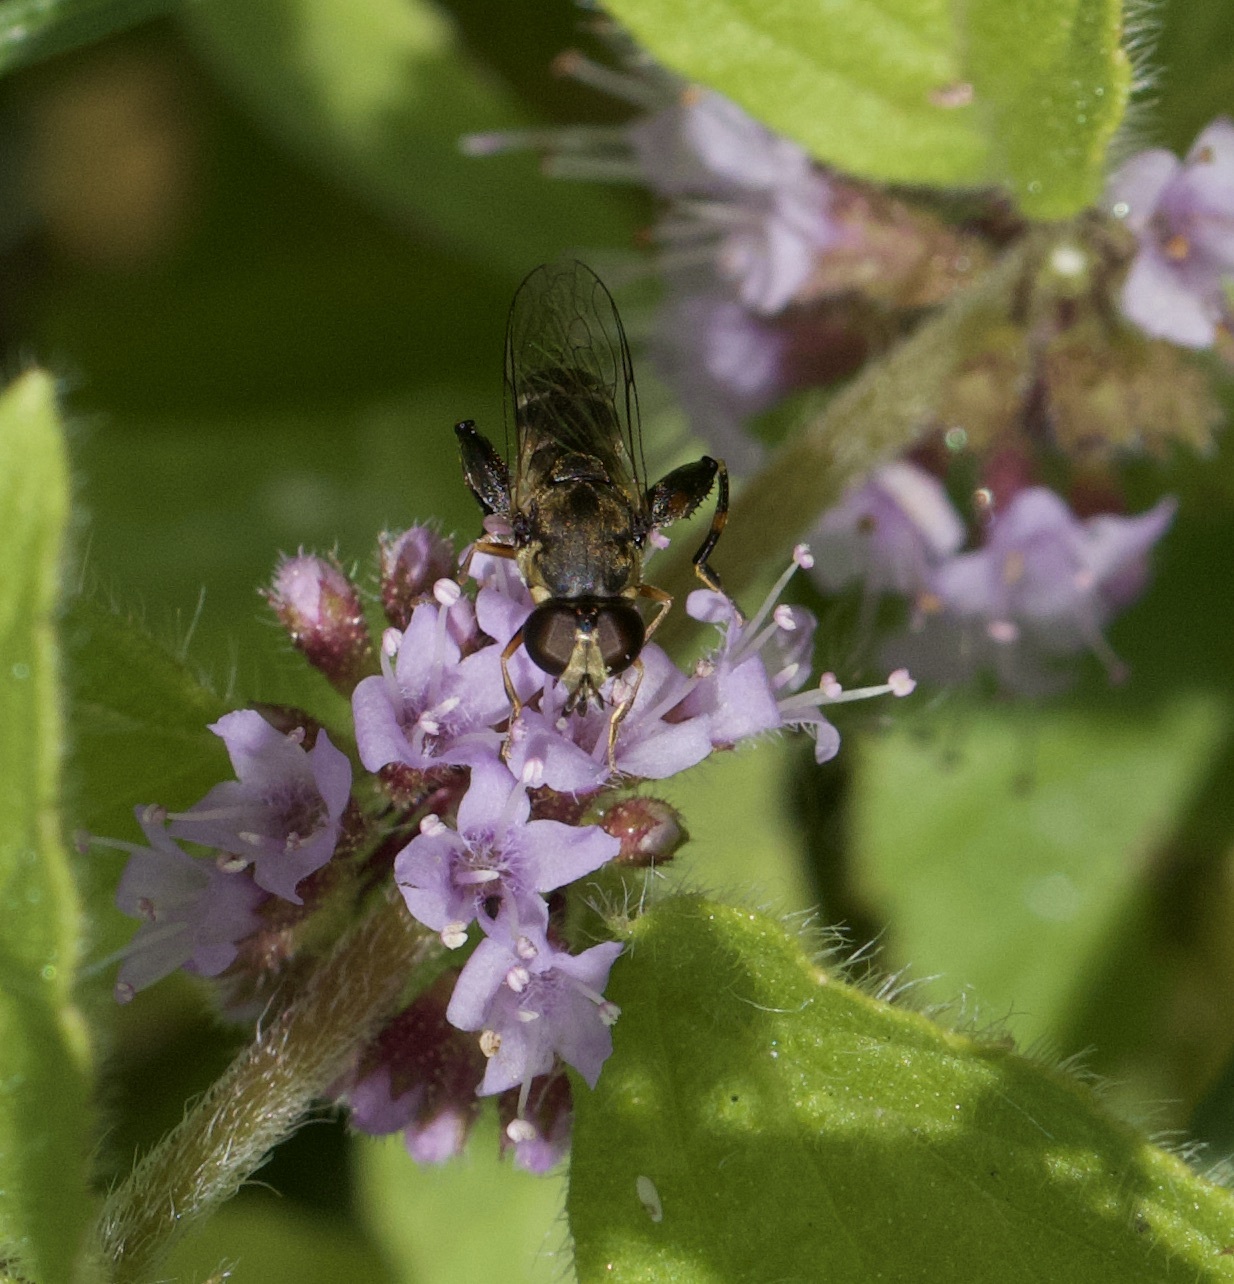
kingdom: Animalia
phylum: Arthropoda
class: Insecta
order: Diptera
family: Syrphidae
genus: Syritta
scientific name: Syritta pipiens
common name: Hover fly
